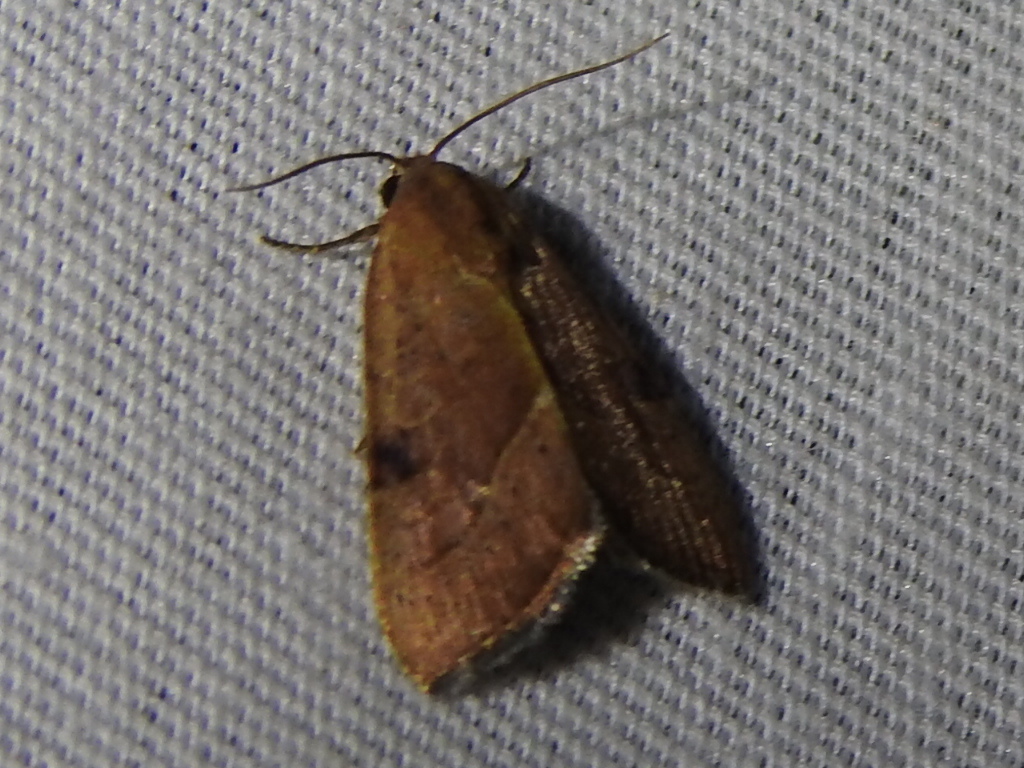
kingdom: Animalia
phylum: Arthropoda
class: Insecta
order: Lepidoptera
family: Noctuidae
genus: Galgula
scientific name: Galgula partita
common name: Wedgeling
